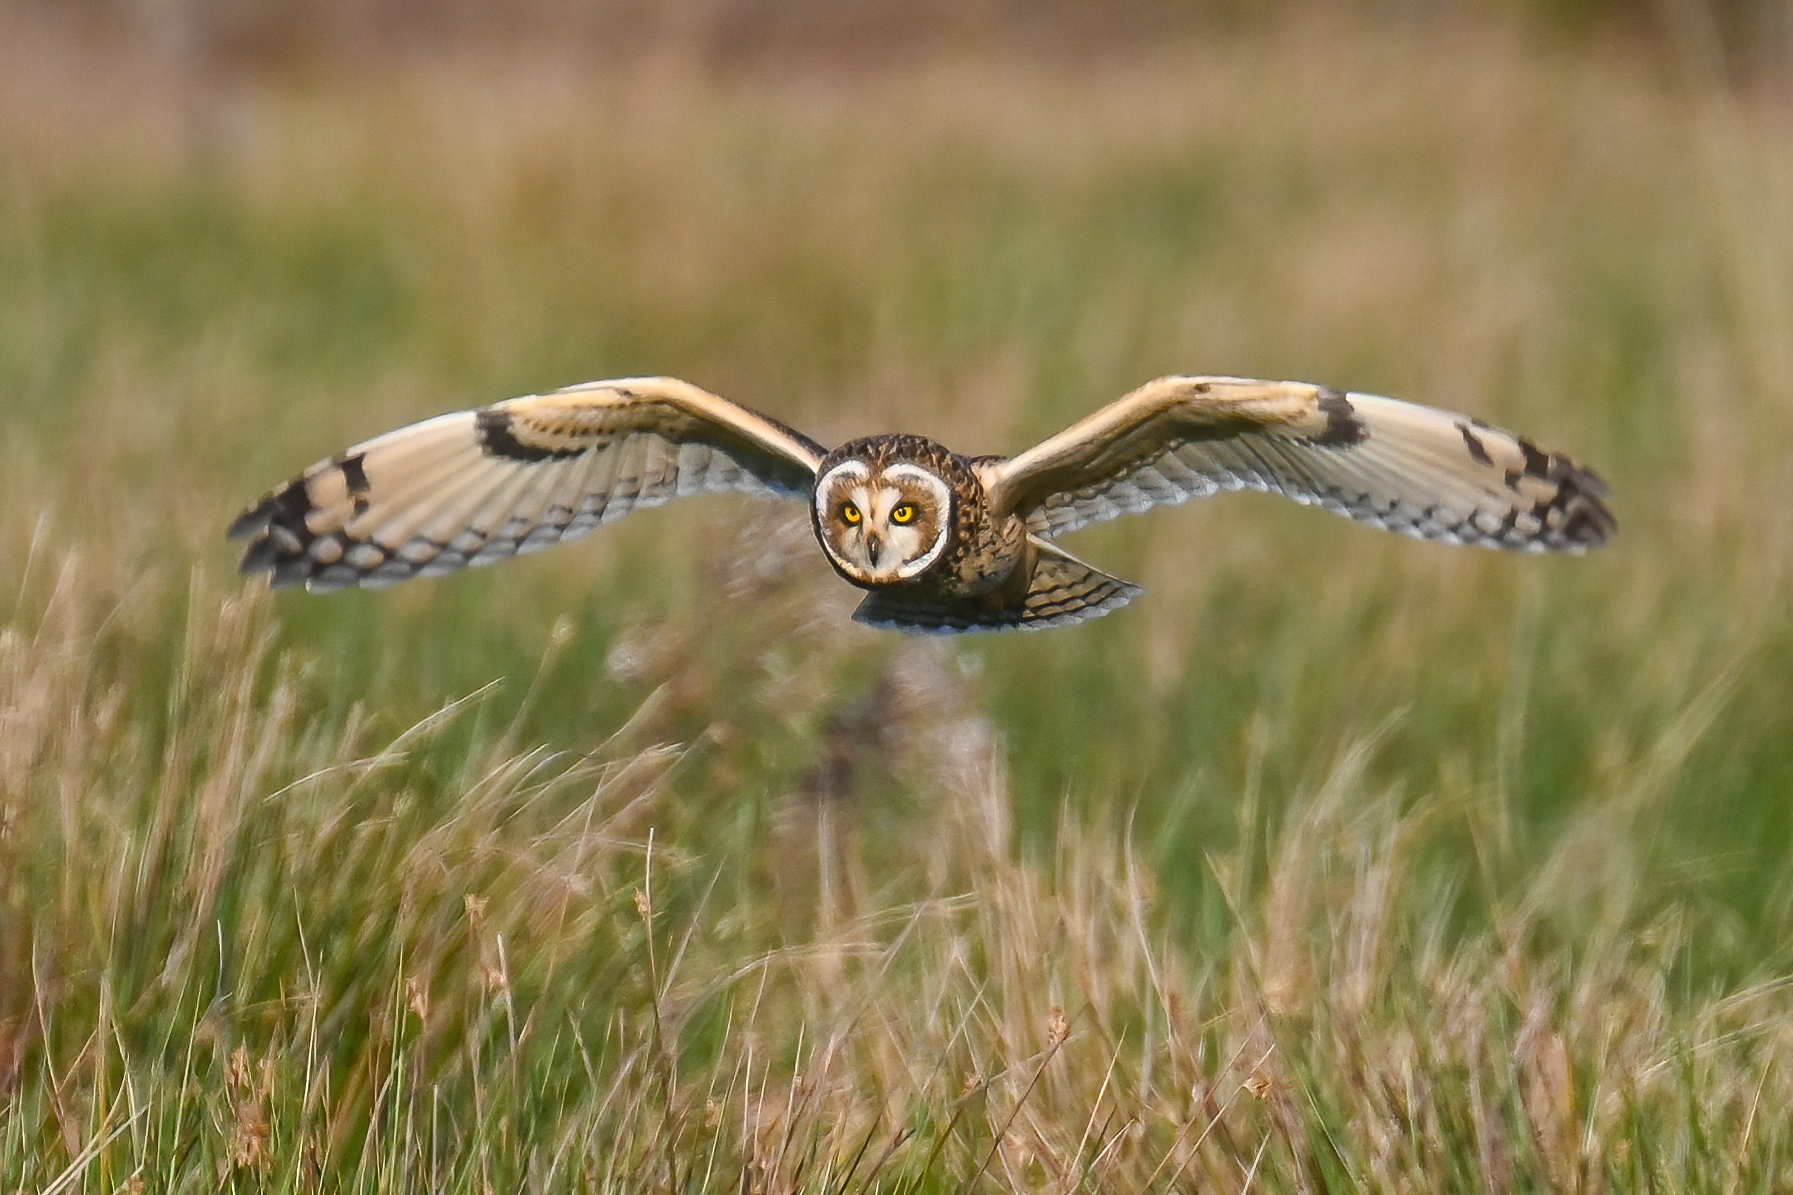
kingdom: Animalia
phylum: Chordata
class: Aves
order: Strigiformes
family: Strigidae
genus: Asio
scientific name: Asio flammeus
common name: Short-eared owl
